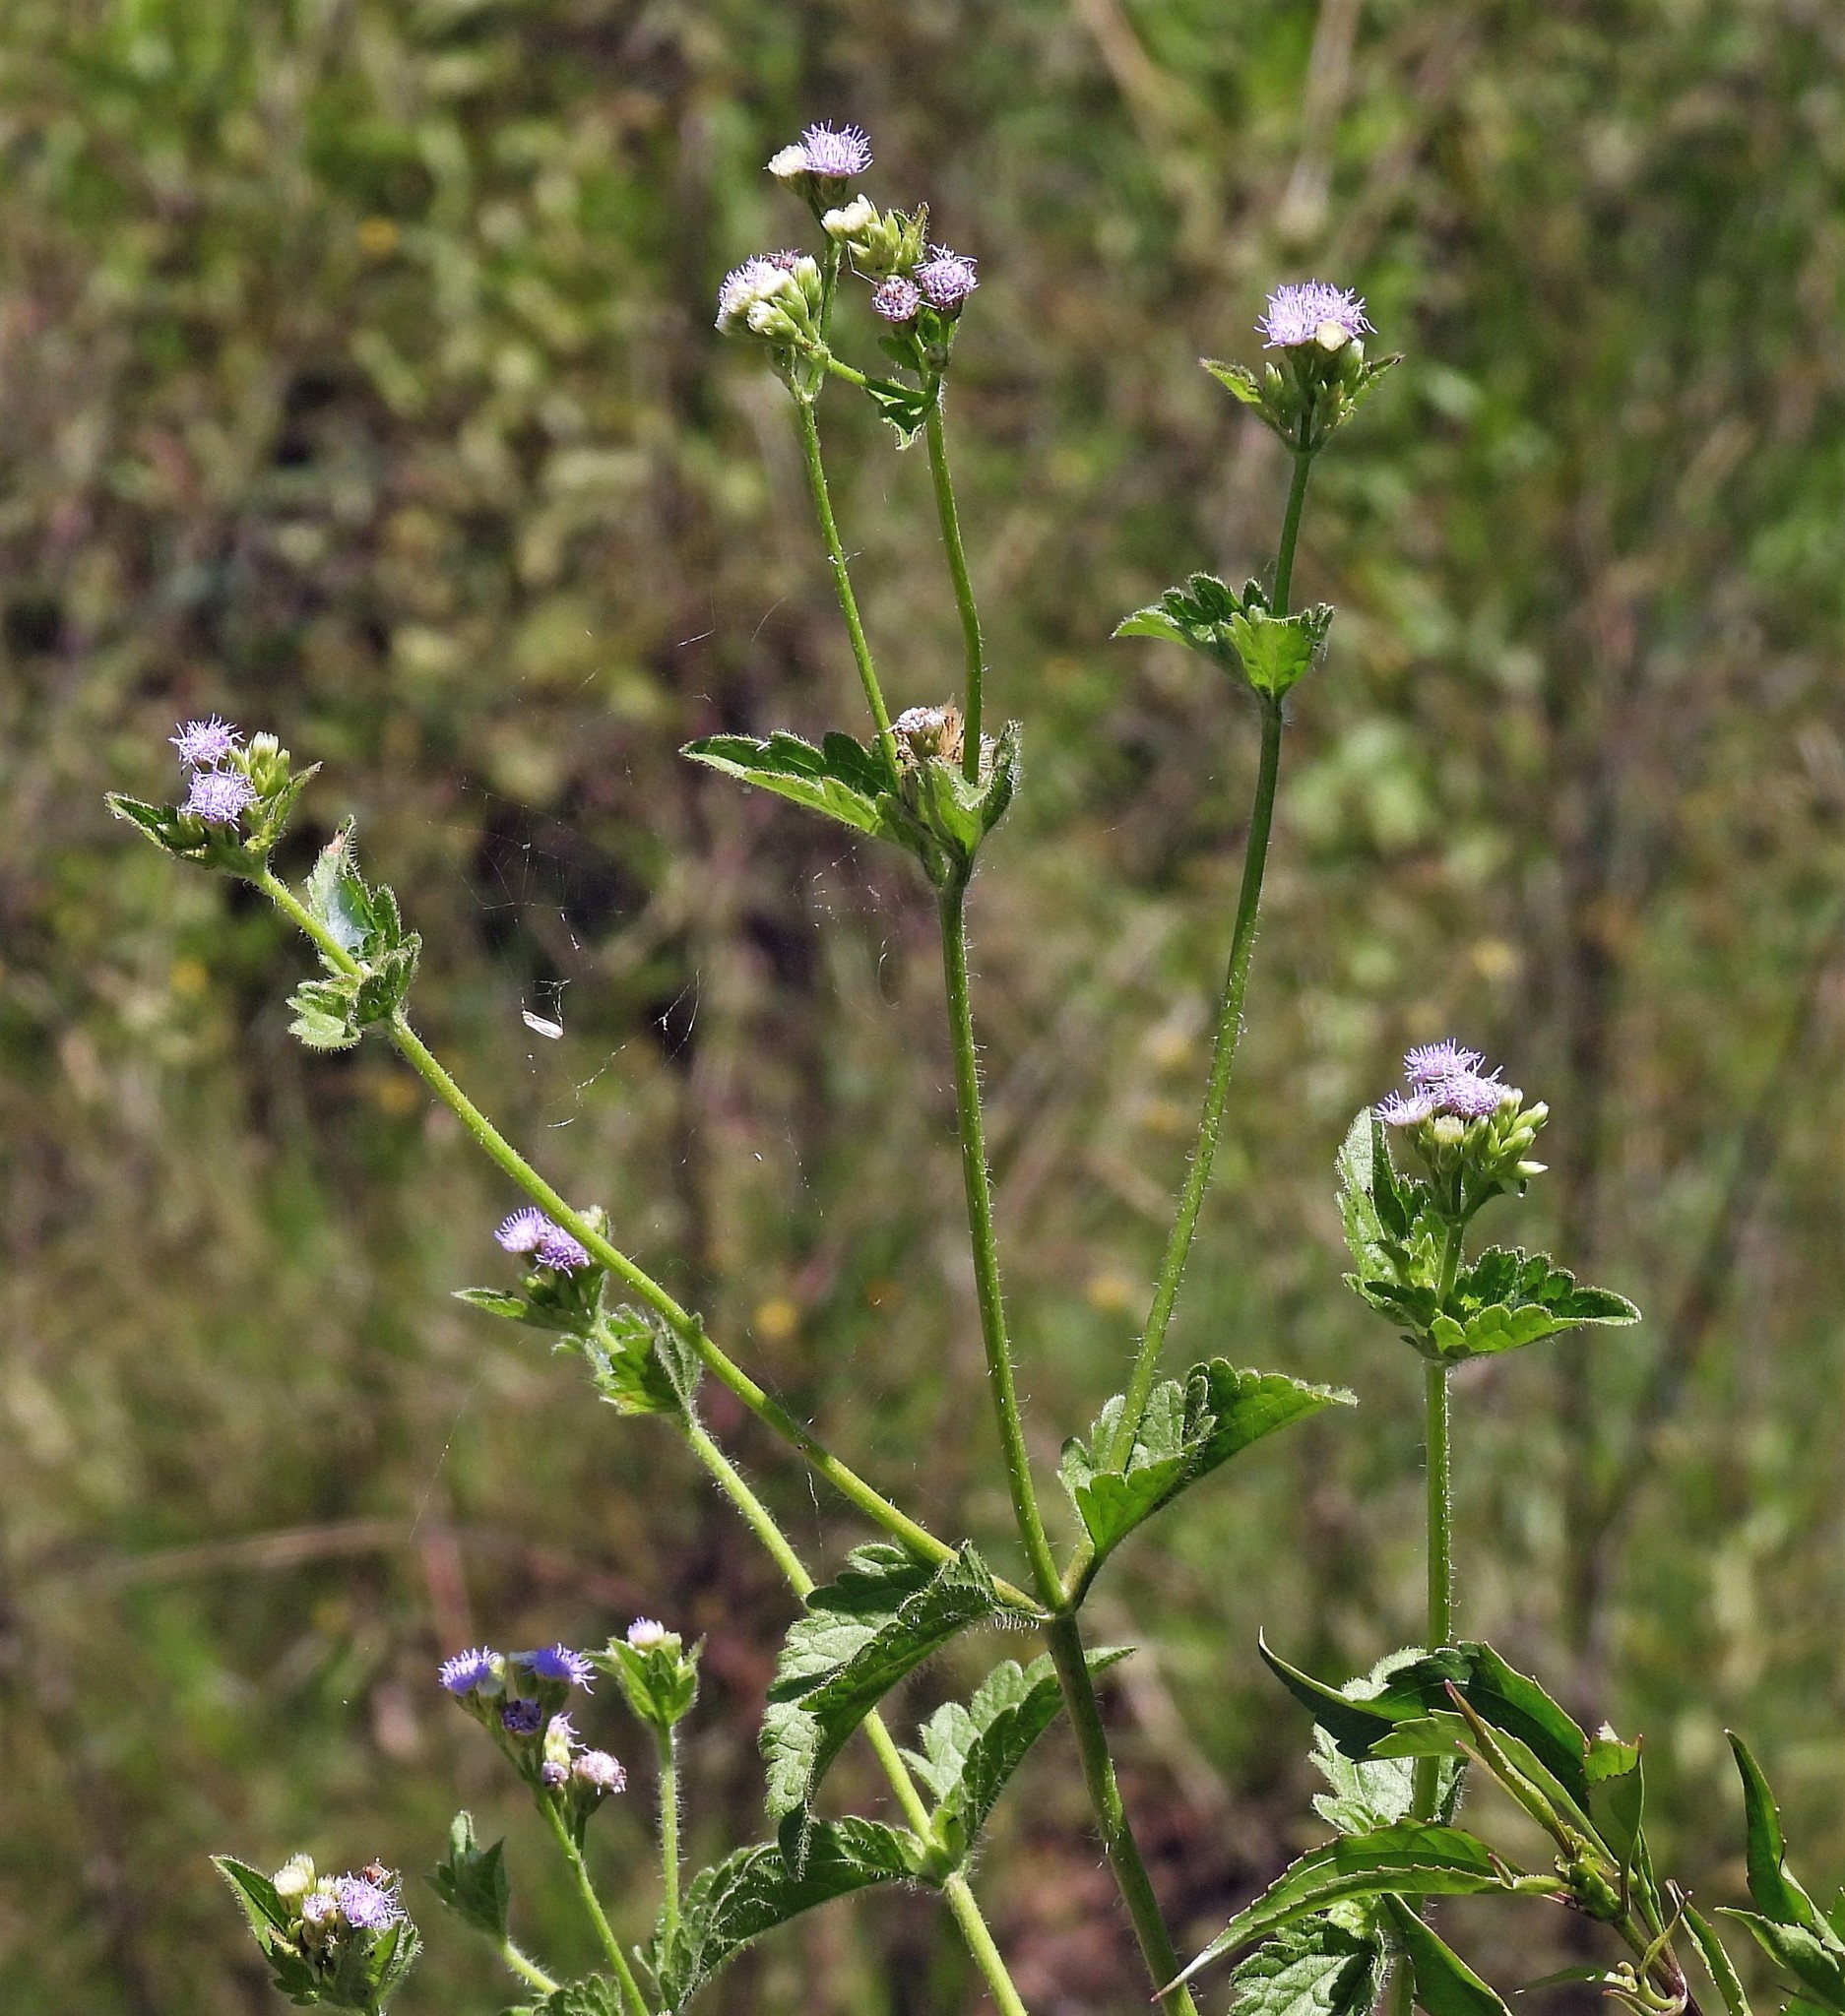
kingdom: Plantae
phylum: Tracheophyta
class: Magnoliopsida
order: Asterales
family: Asteraceae
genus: Praxelis
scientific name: Praxelis clematidea
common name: Praxelis
